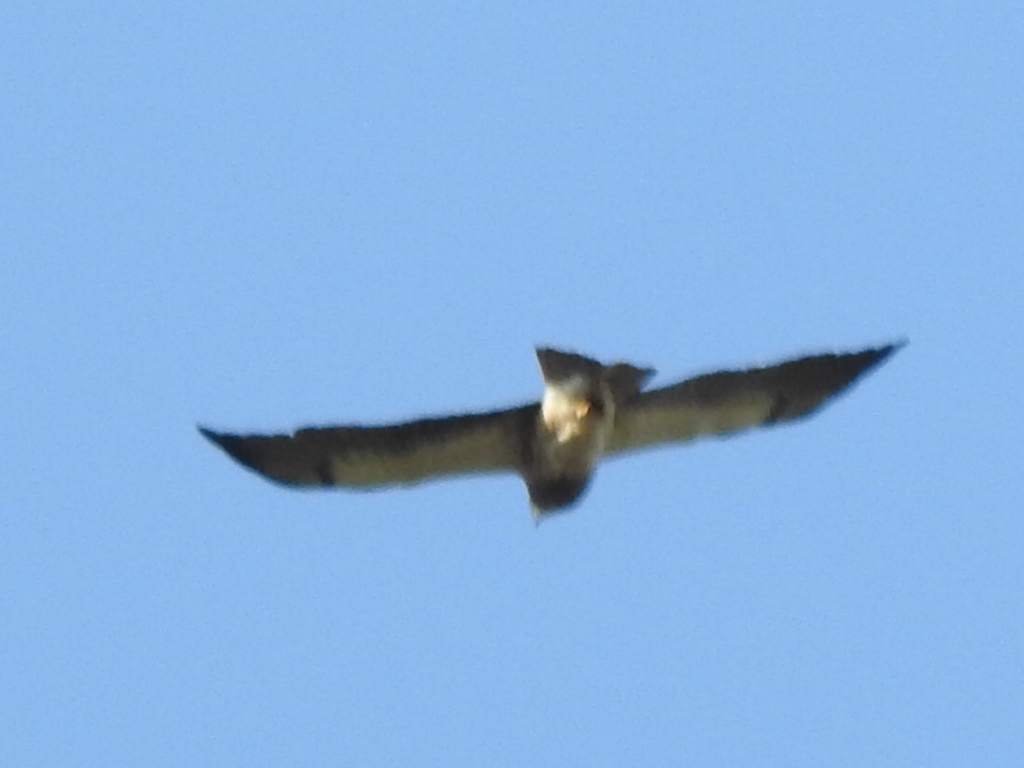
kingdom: Animalia
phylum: Chordata
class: Aves
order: Accipitriformes
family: Accipitridae
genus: Buteo
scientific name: Buteo swainsoni
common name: Swainson's hawk
